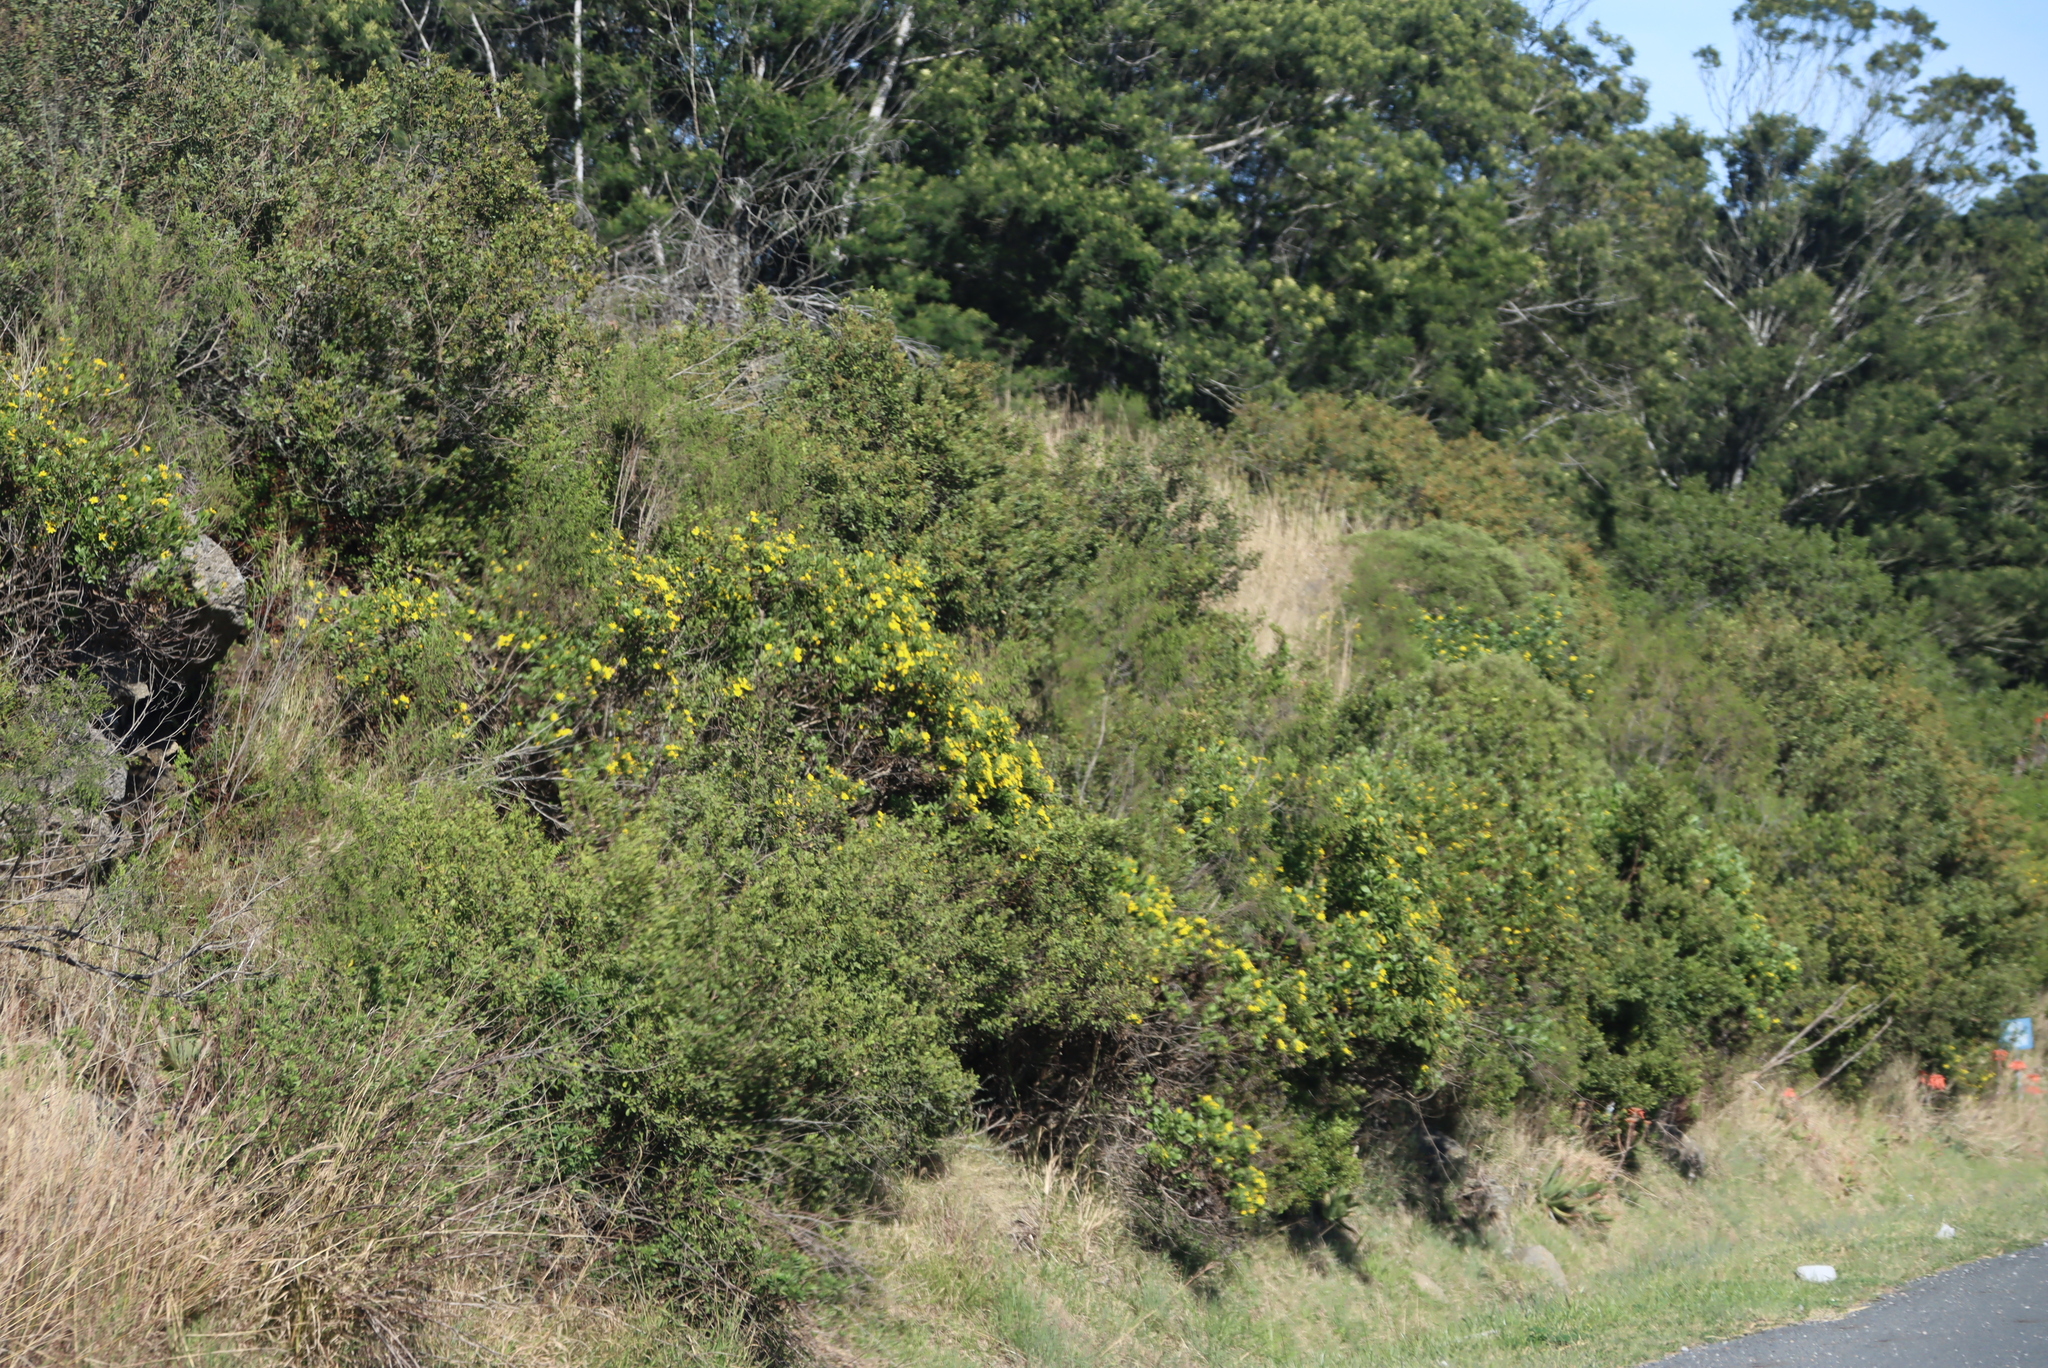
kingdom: Plantae
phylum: Tracheophyta
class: Magnoliopsida
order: Asterales
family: Asteraceae
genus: Osteospermum
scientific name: Osteospermum moniliferum
